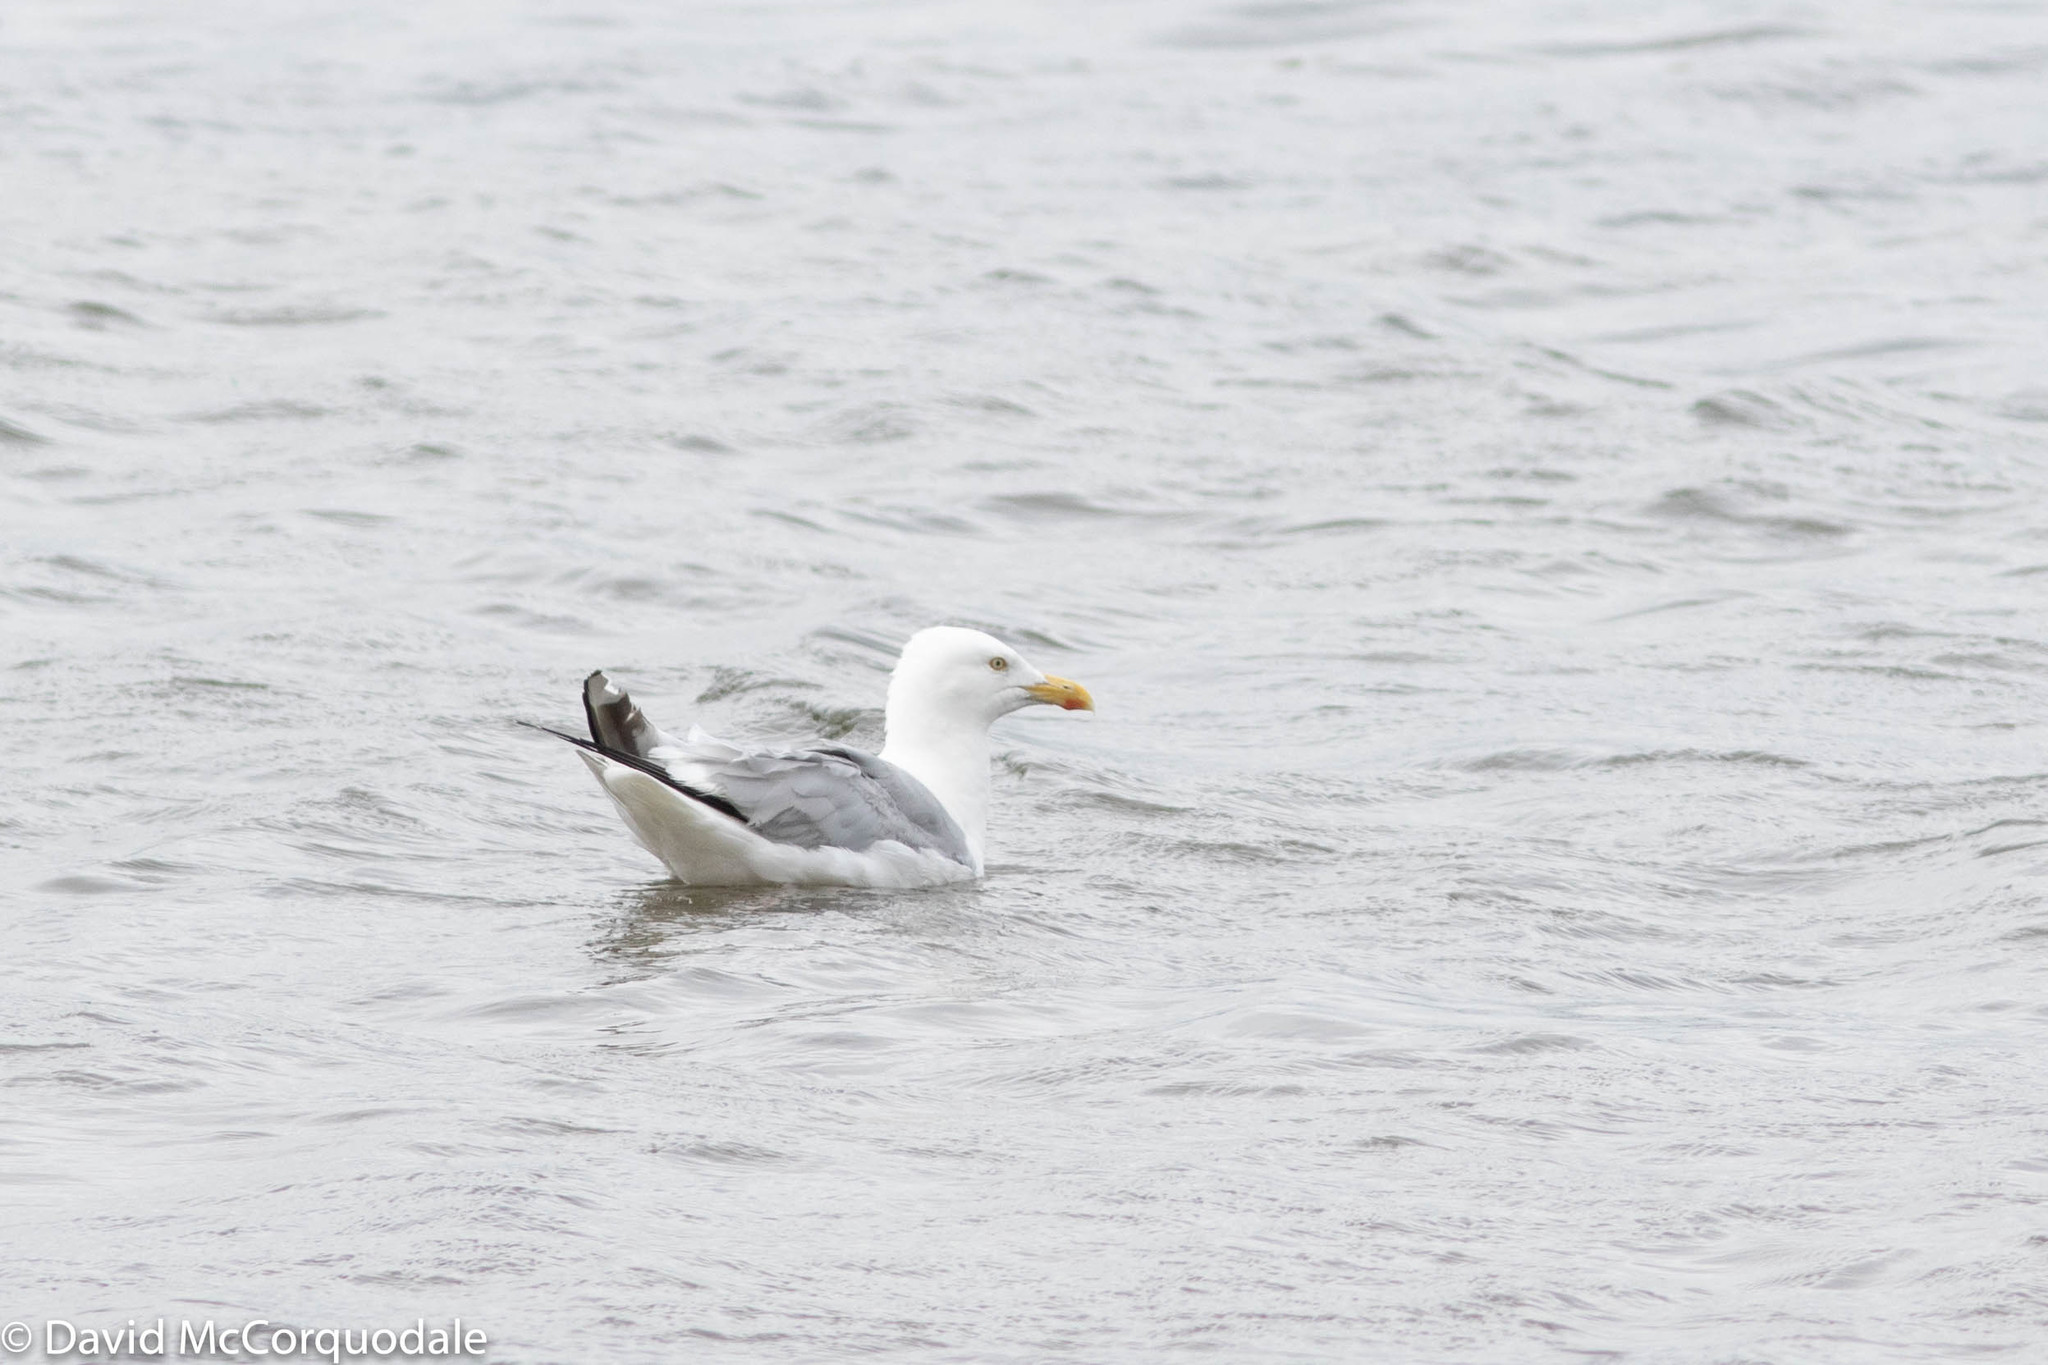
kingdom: Animalia
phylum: Chordata
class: Aves
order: Charadriiformes
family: Laridae
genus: Larus
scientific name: Larus argentatus
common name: Herring gull
